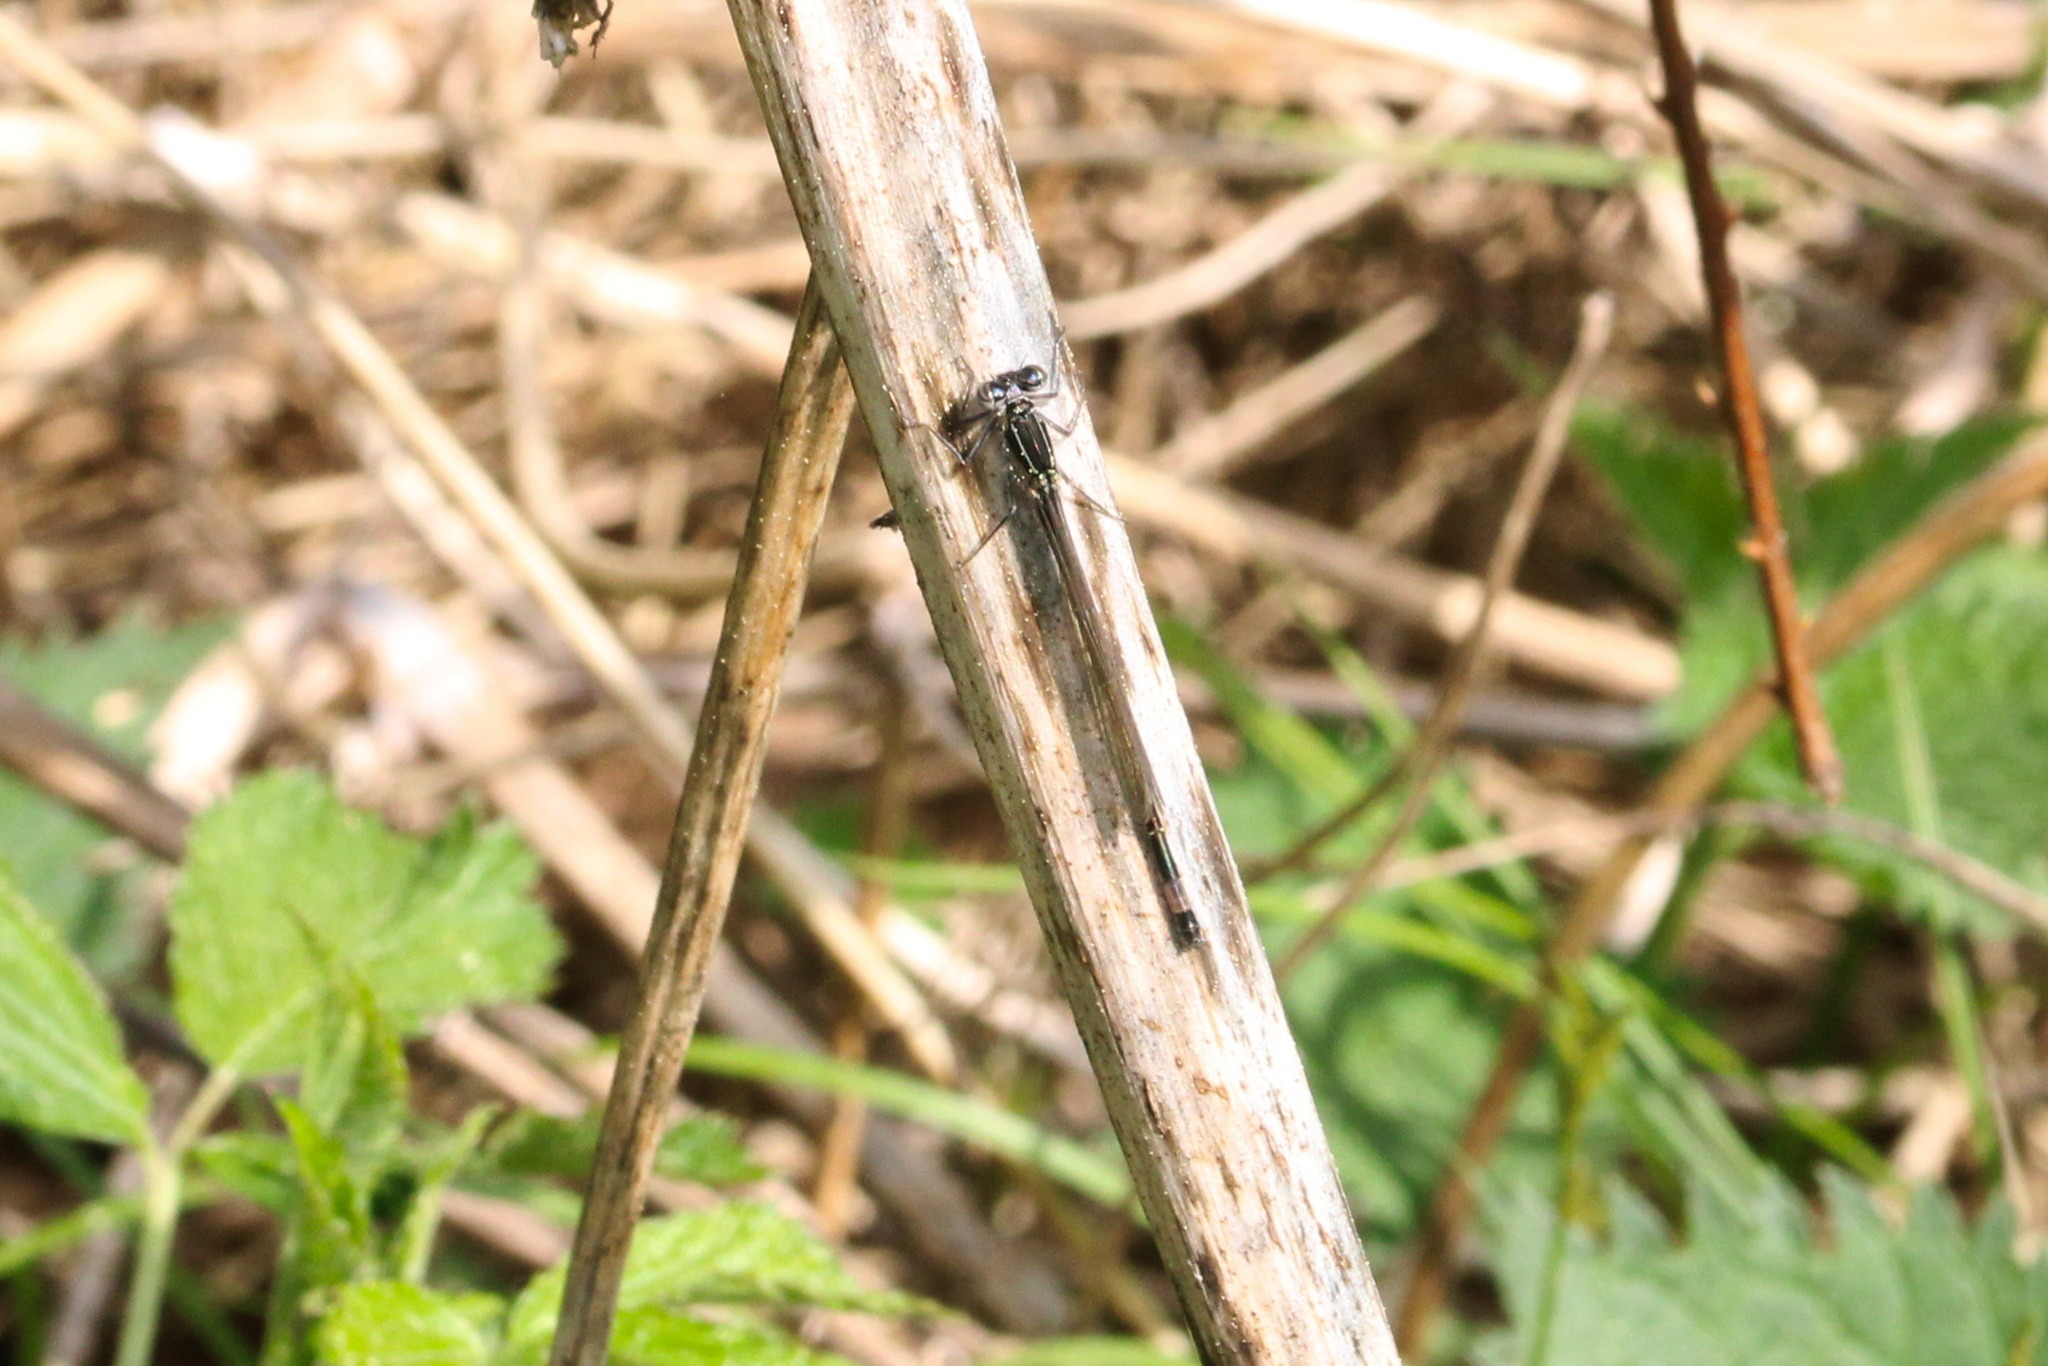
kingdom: Animalia
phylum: Arthropoda
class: Insecta
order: Odonata
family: Coenagrionidae
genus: Ischnura
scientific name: Ischnura elegans
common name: Blue-tailed damselfly
